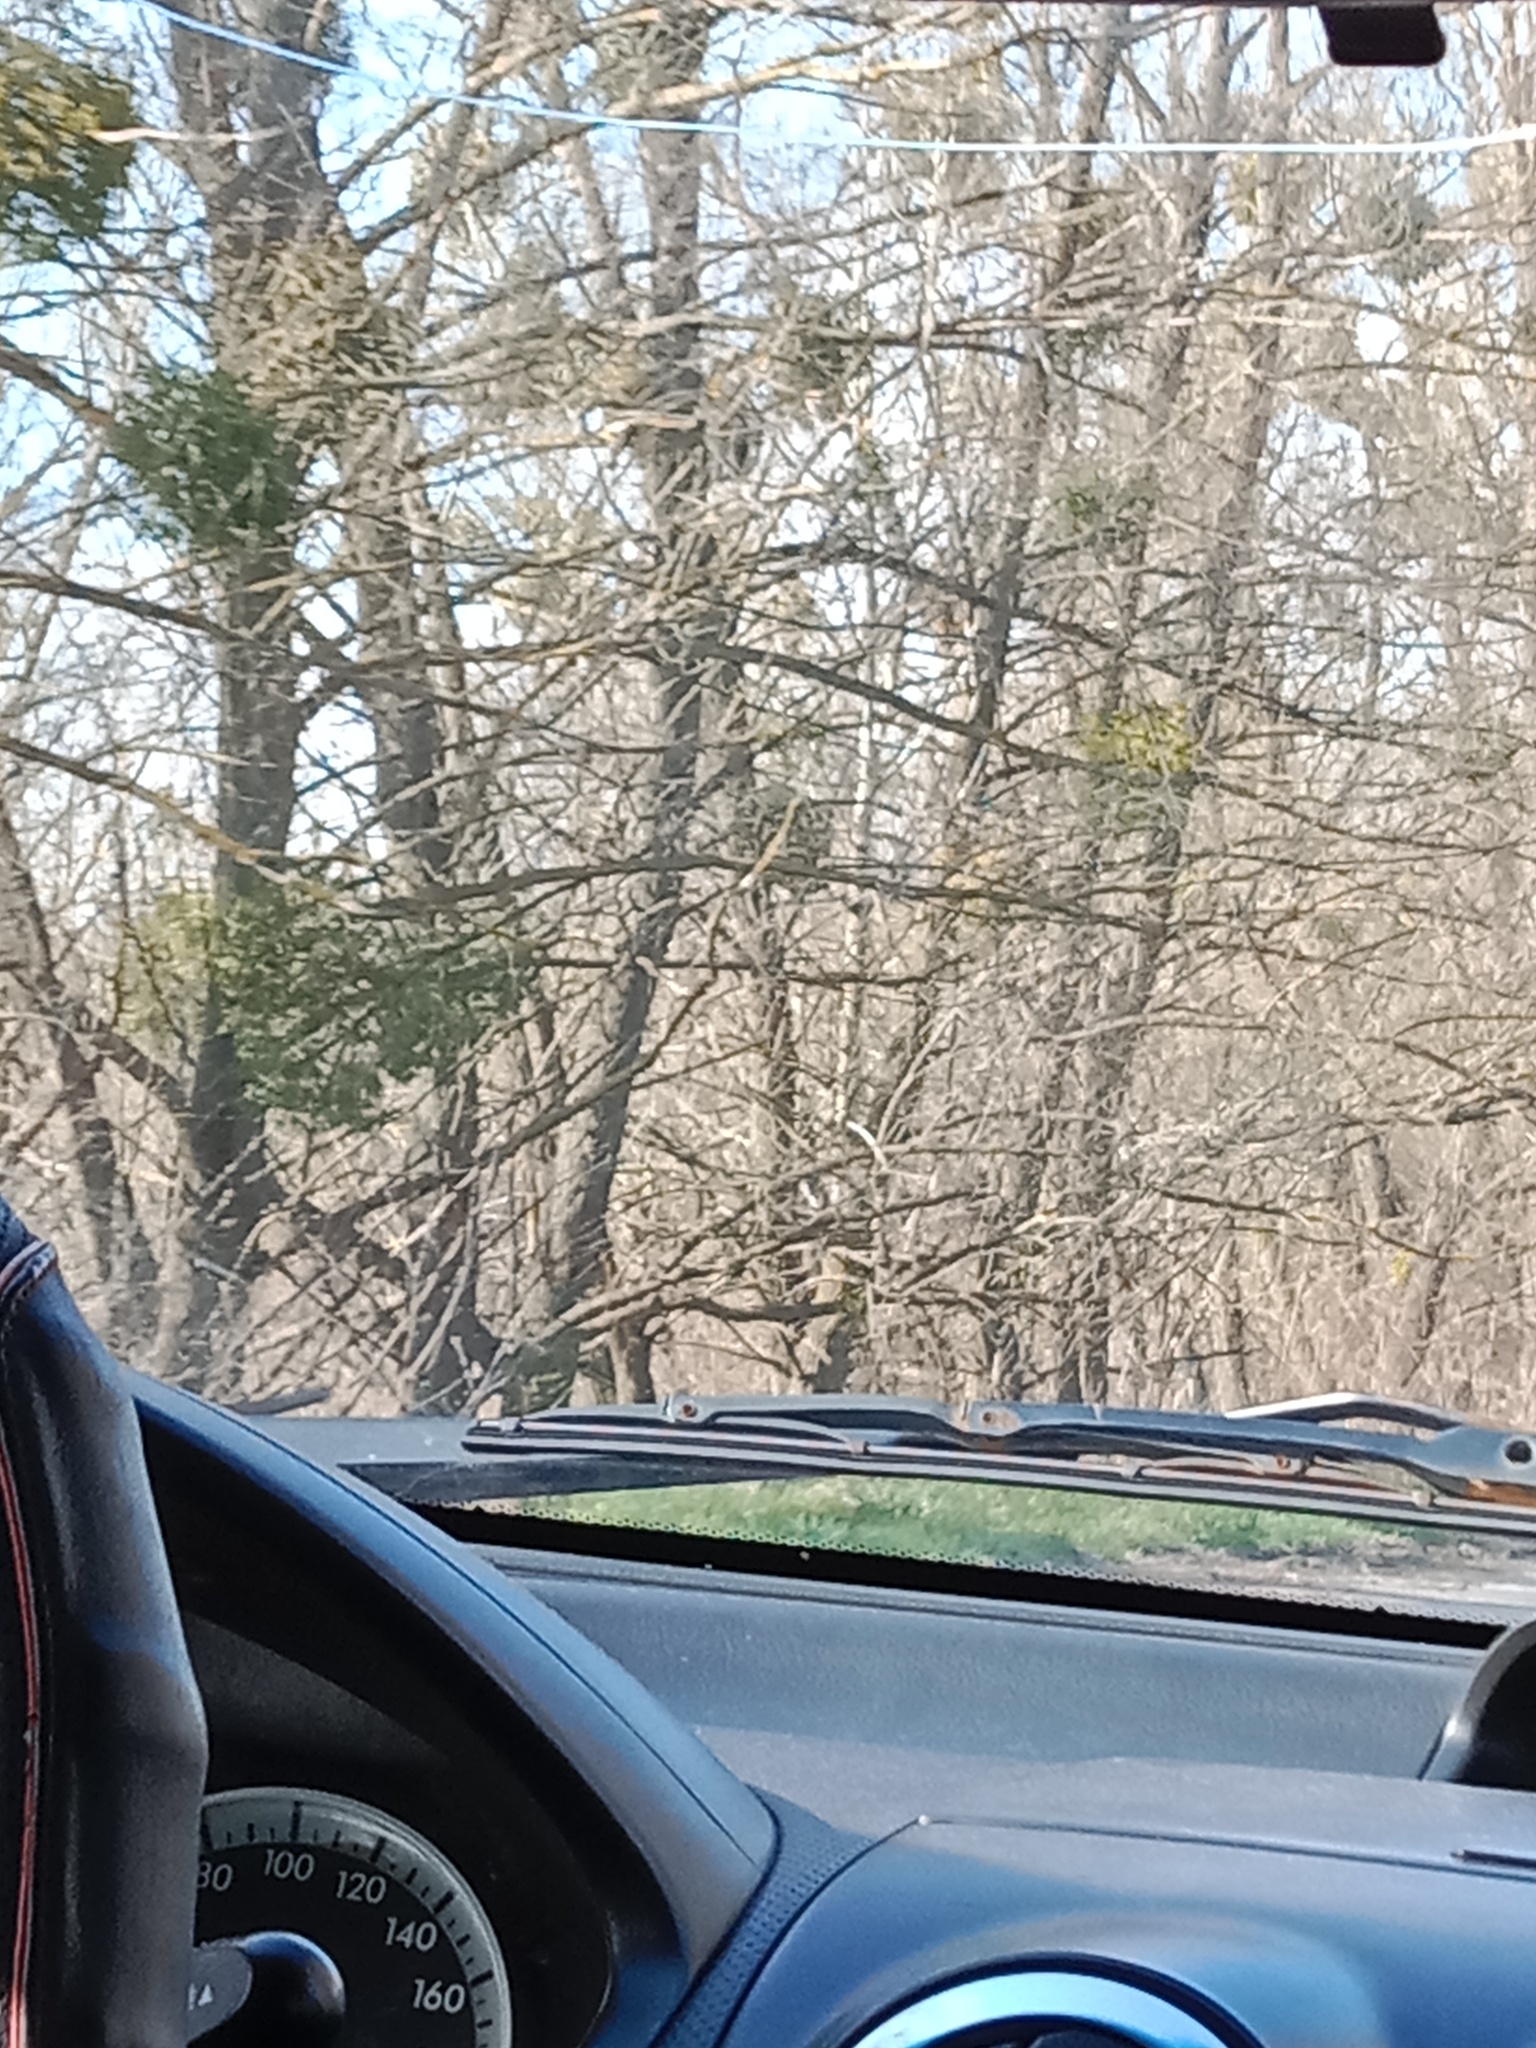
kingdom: Plantae
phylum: Tracheophyta
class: Magnoliopsida
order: Santalales
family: Viscaceae
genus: Viscum
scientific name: Viscum album
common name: Mistletoe
